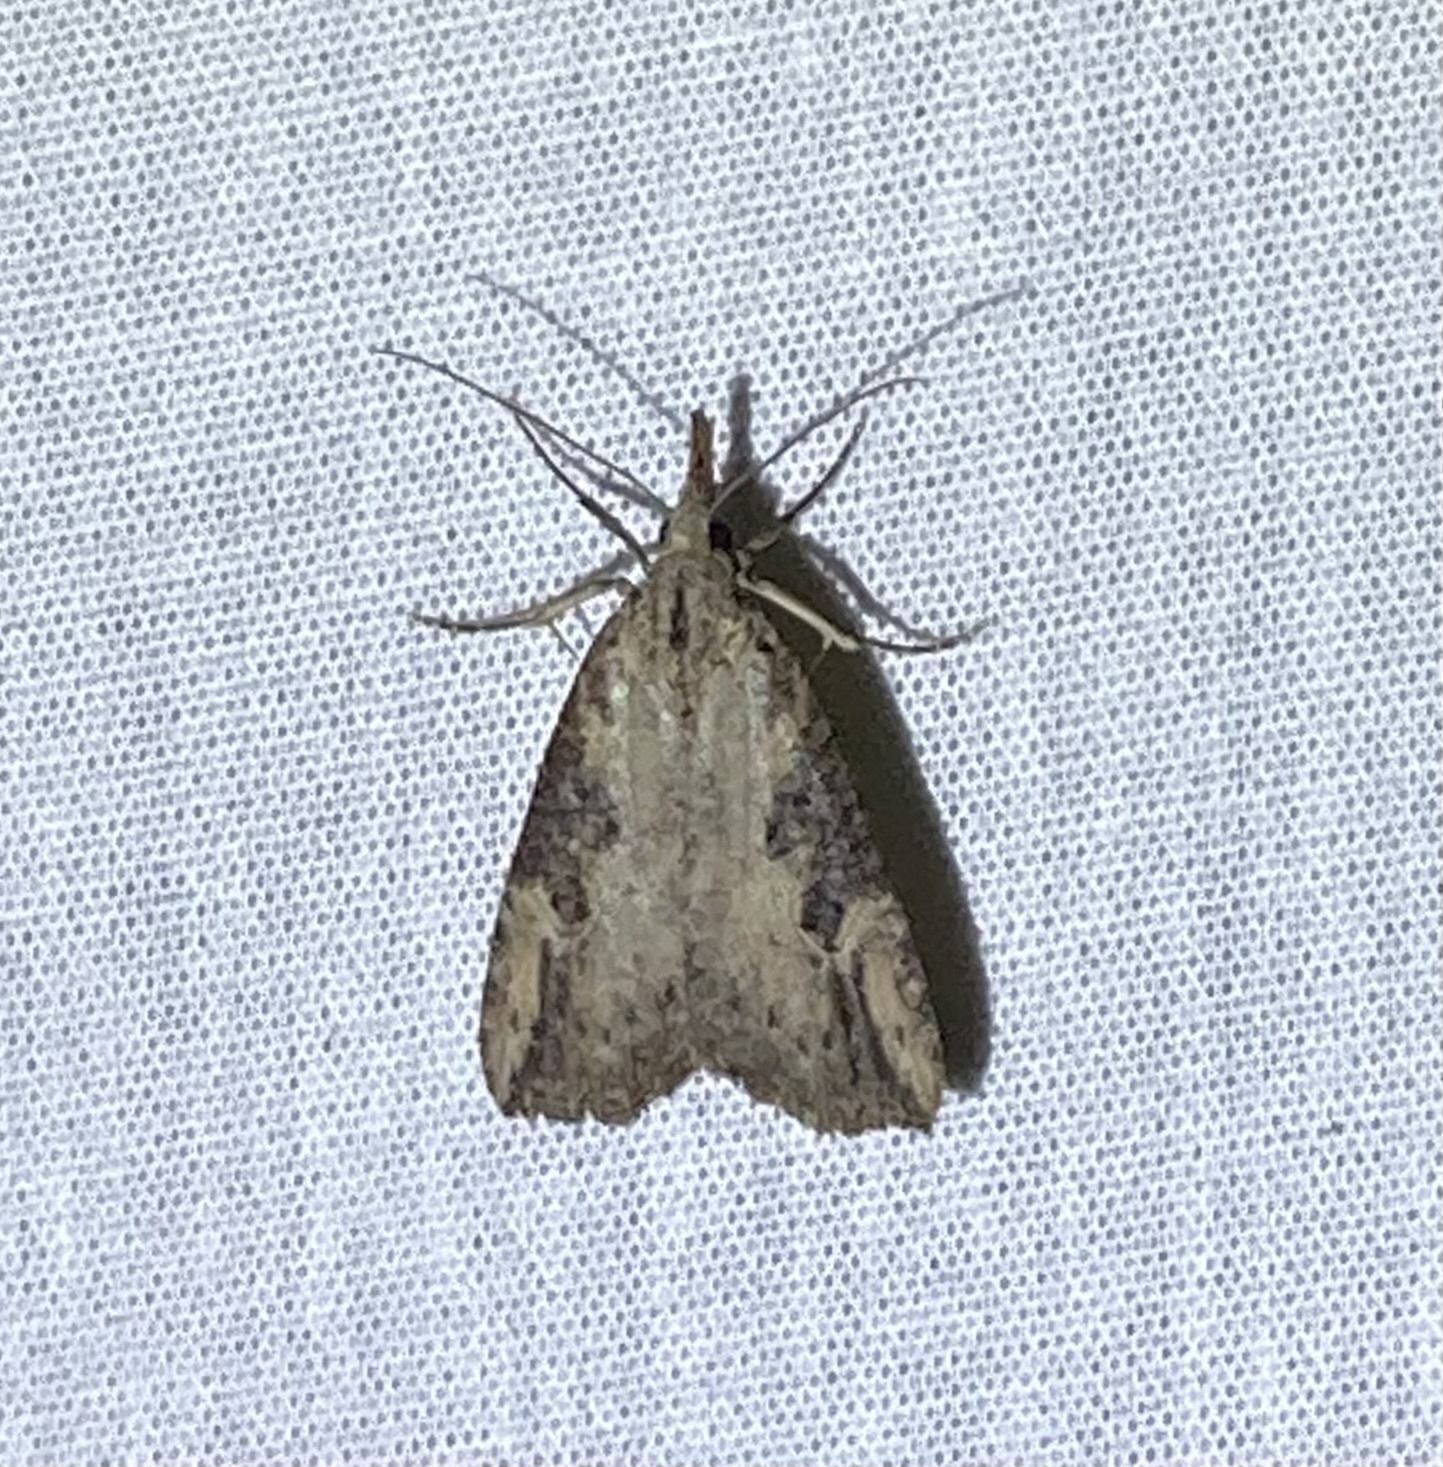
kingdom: Animalia
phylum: Arthropoda
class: Insecta
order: Lepidoptera
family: Erebidae
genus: Hypena
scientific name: Hypena humuli
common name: Hop vine snout
